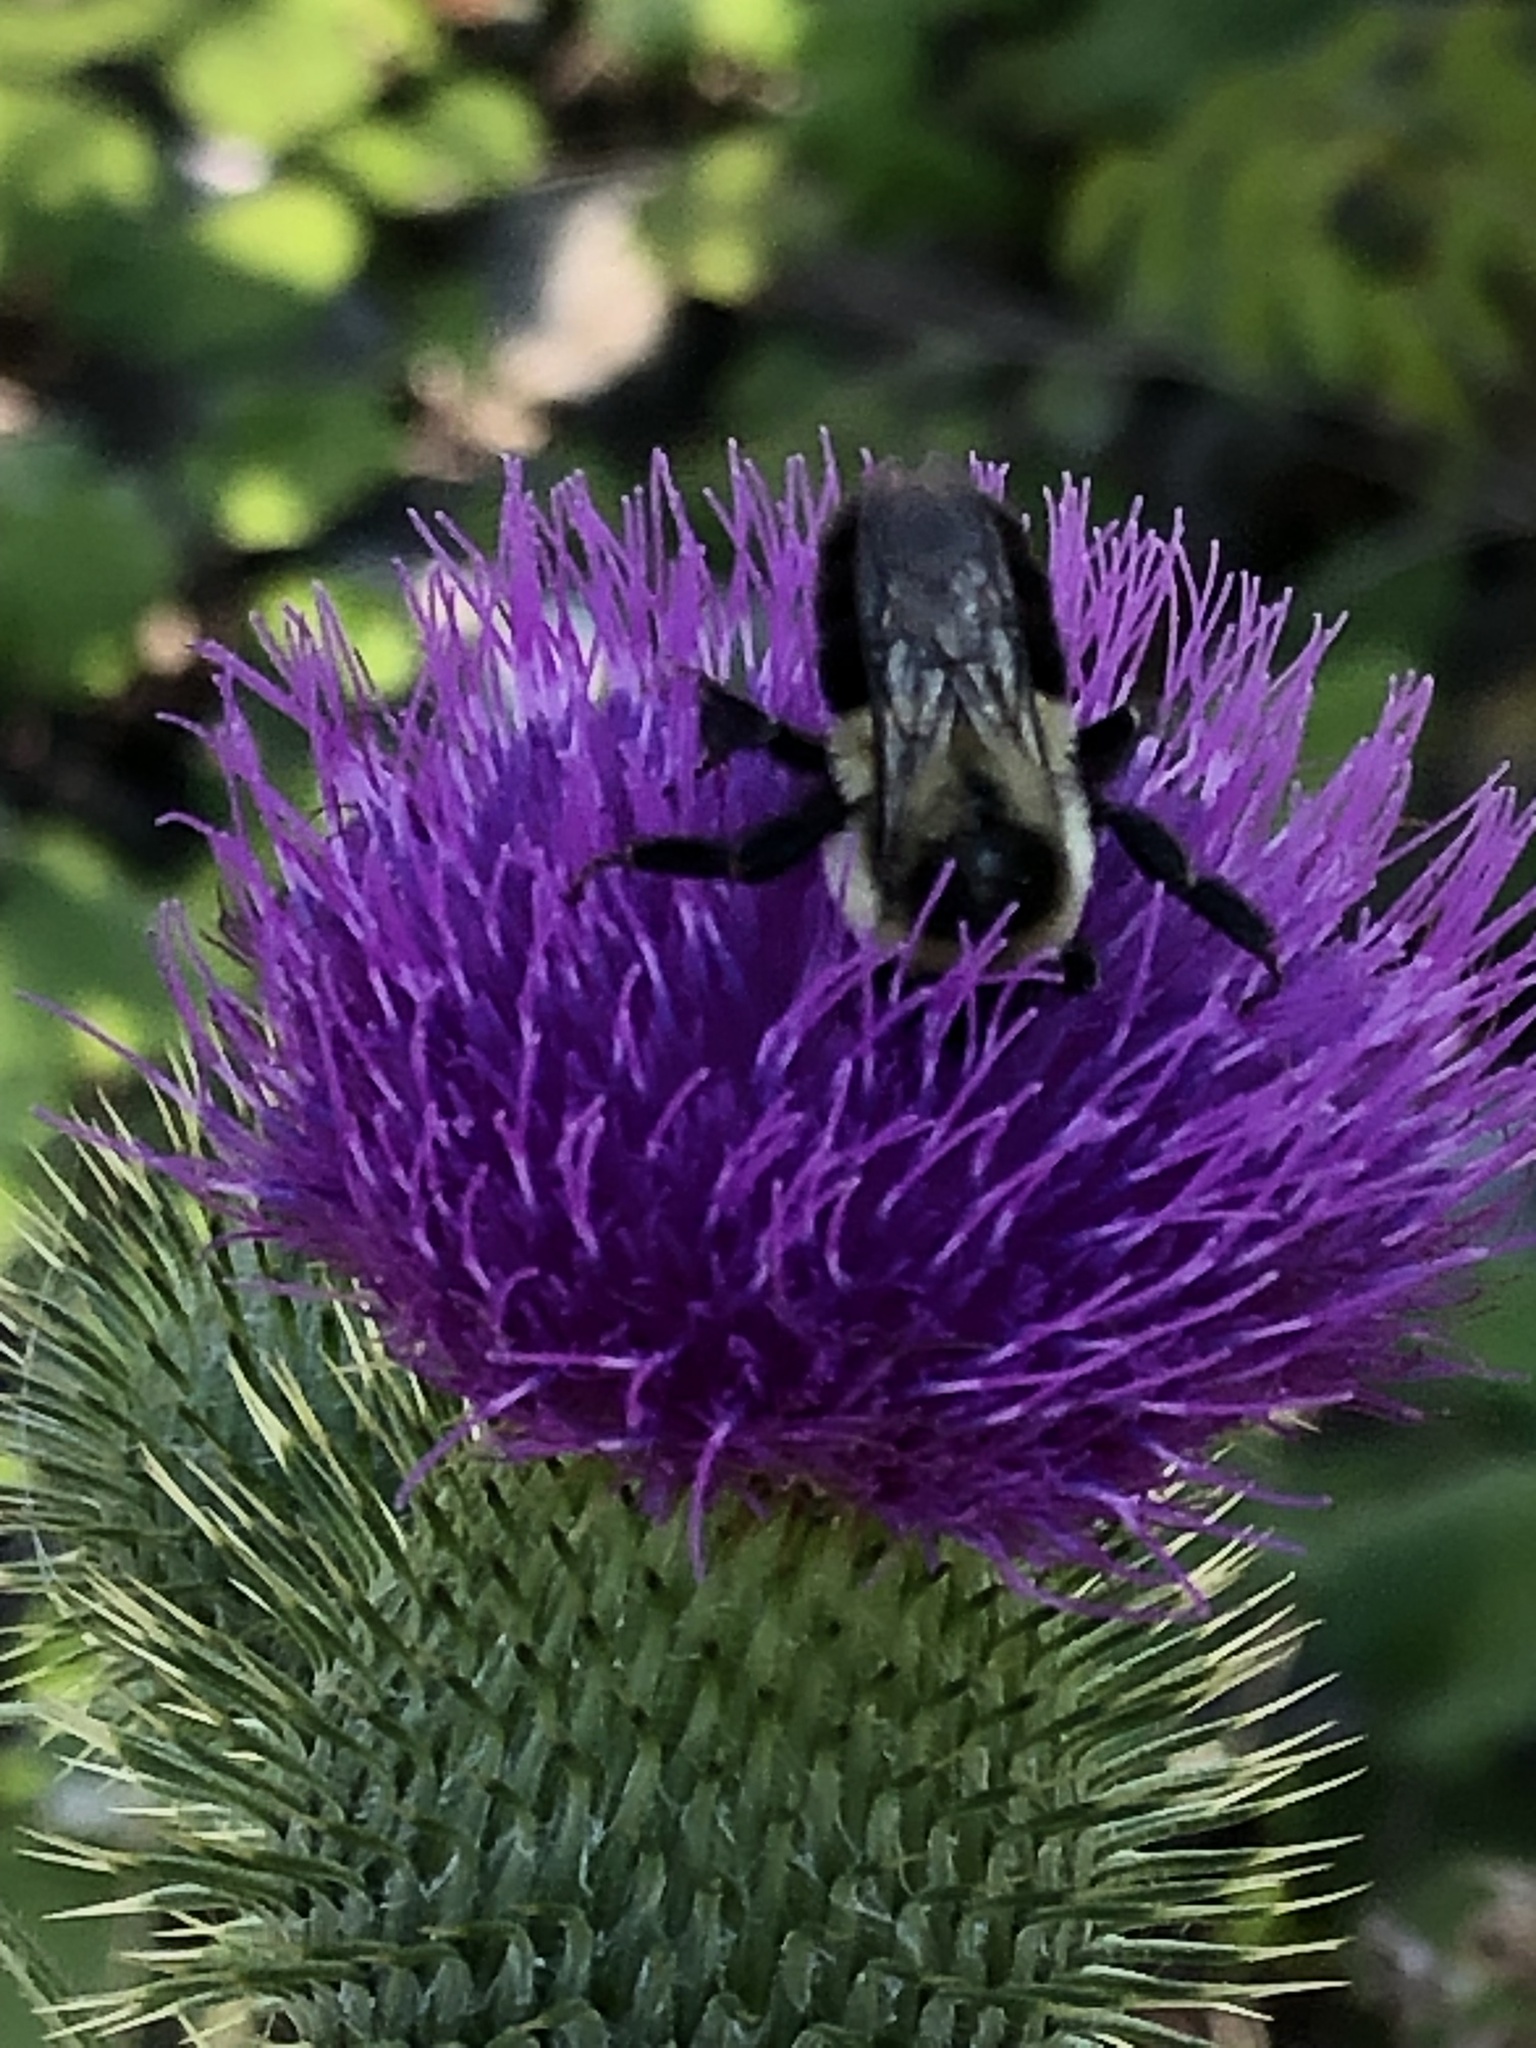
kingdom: Animalia
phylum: Arthropoda
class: Insecta
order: Hymenoptera
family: Apidae
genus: Bombus
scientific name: Bombus impatiens
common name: Common eastern bumble bee
